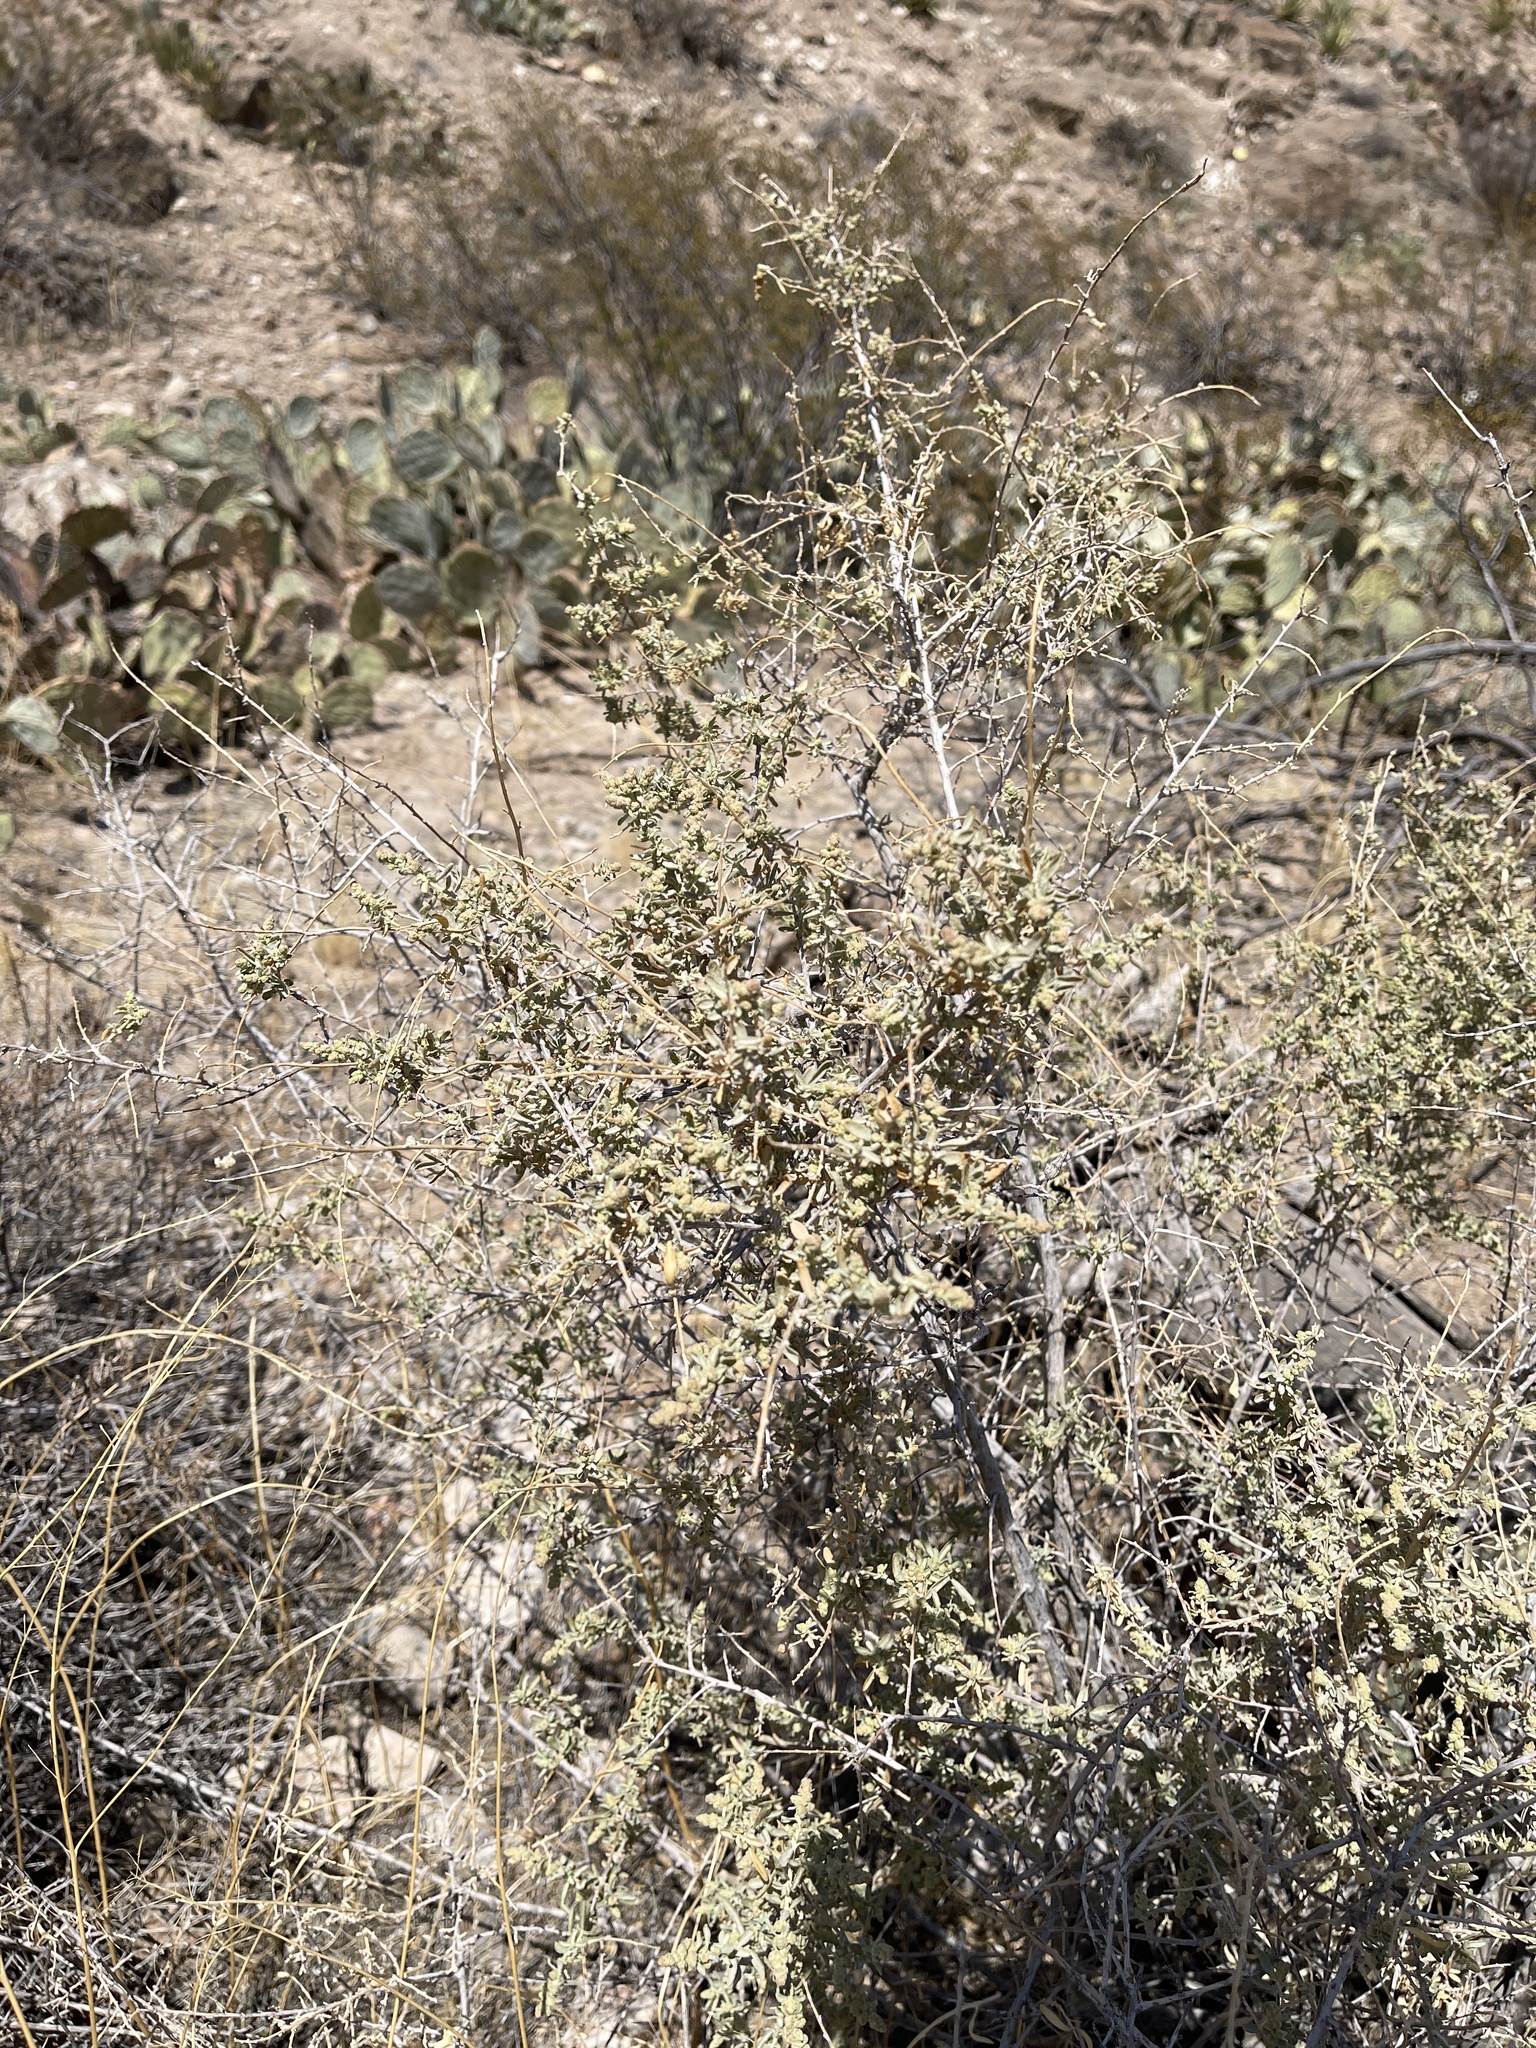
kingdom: Plantae
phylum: Tracheophyta
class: Magnoliopsida
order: Caryophyllales
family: Amaranthaceae
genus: Atriplex
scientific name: Atriplex canescens
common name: Four-wing saltbush
